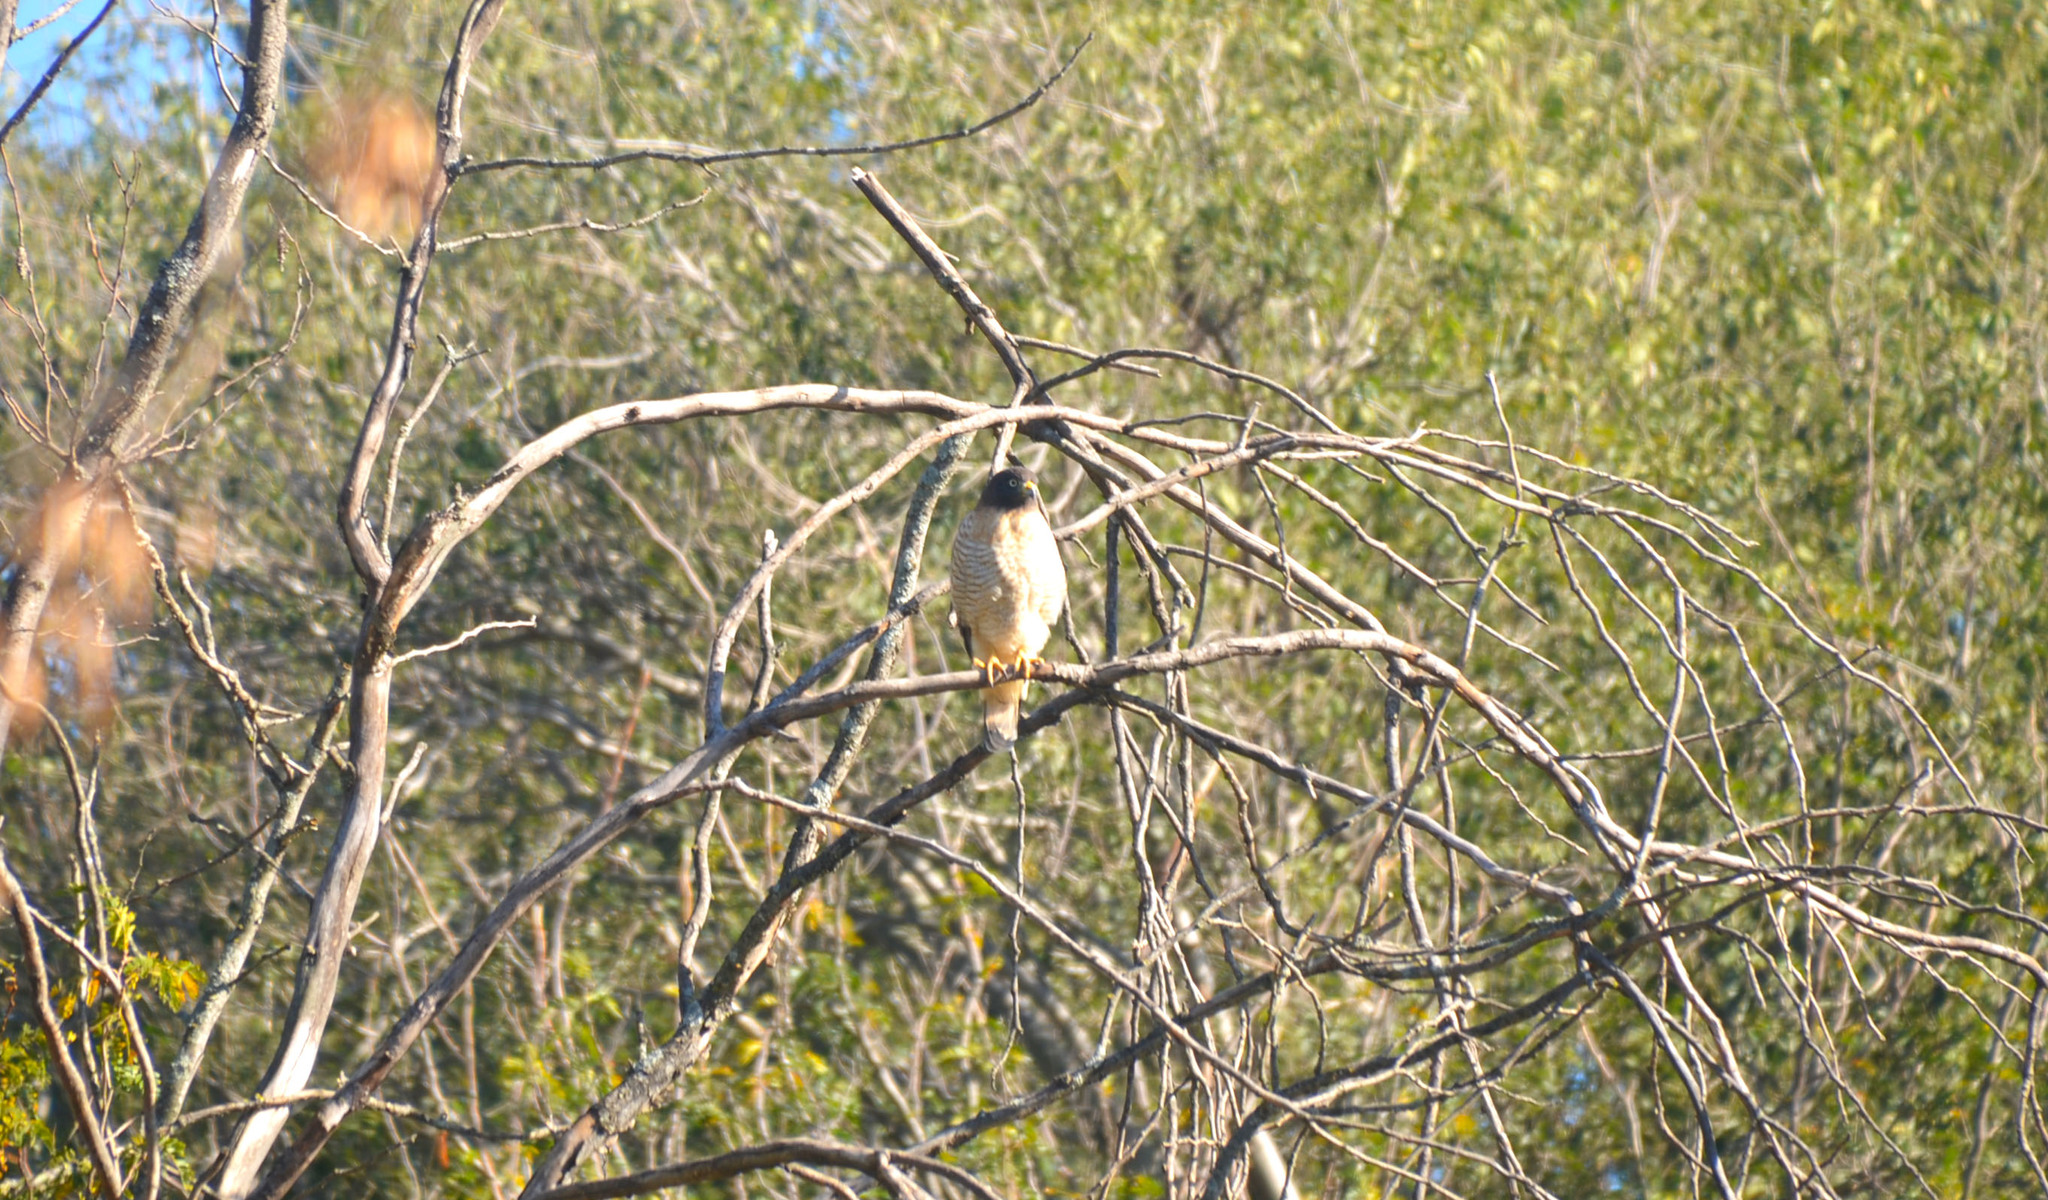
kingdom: Animalia
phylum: Chordata
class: Aves
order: Accipitriformes
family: Accipitridae
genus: Rupornis
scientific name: Rupornis magnirostris
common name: Roadside hawk
